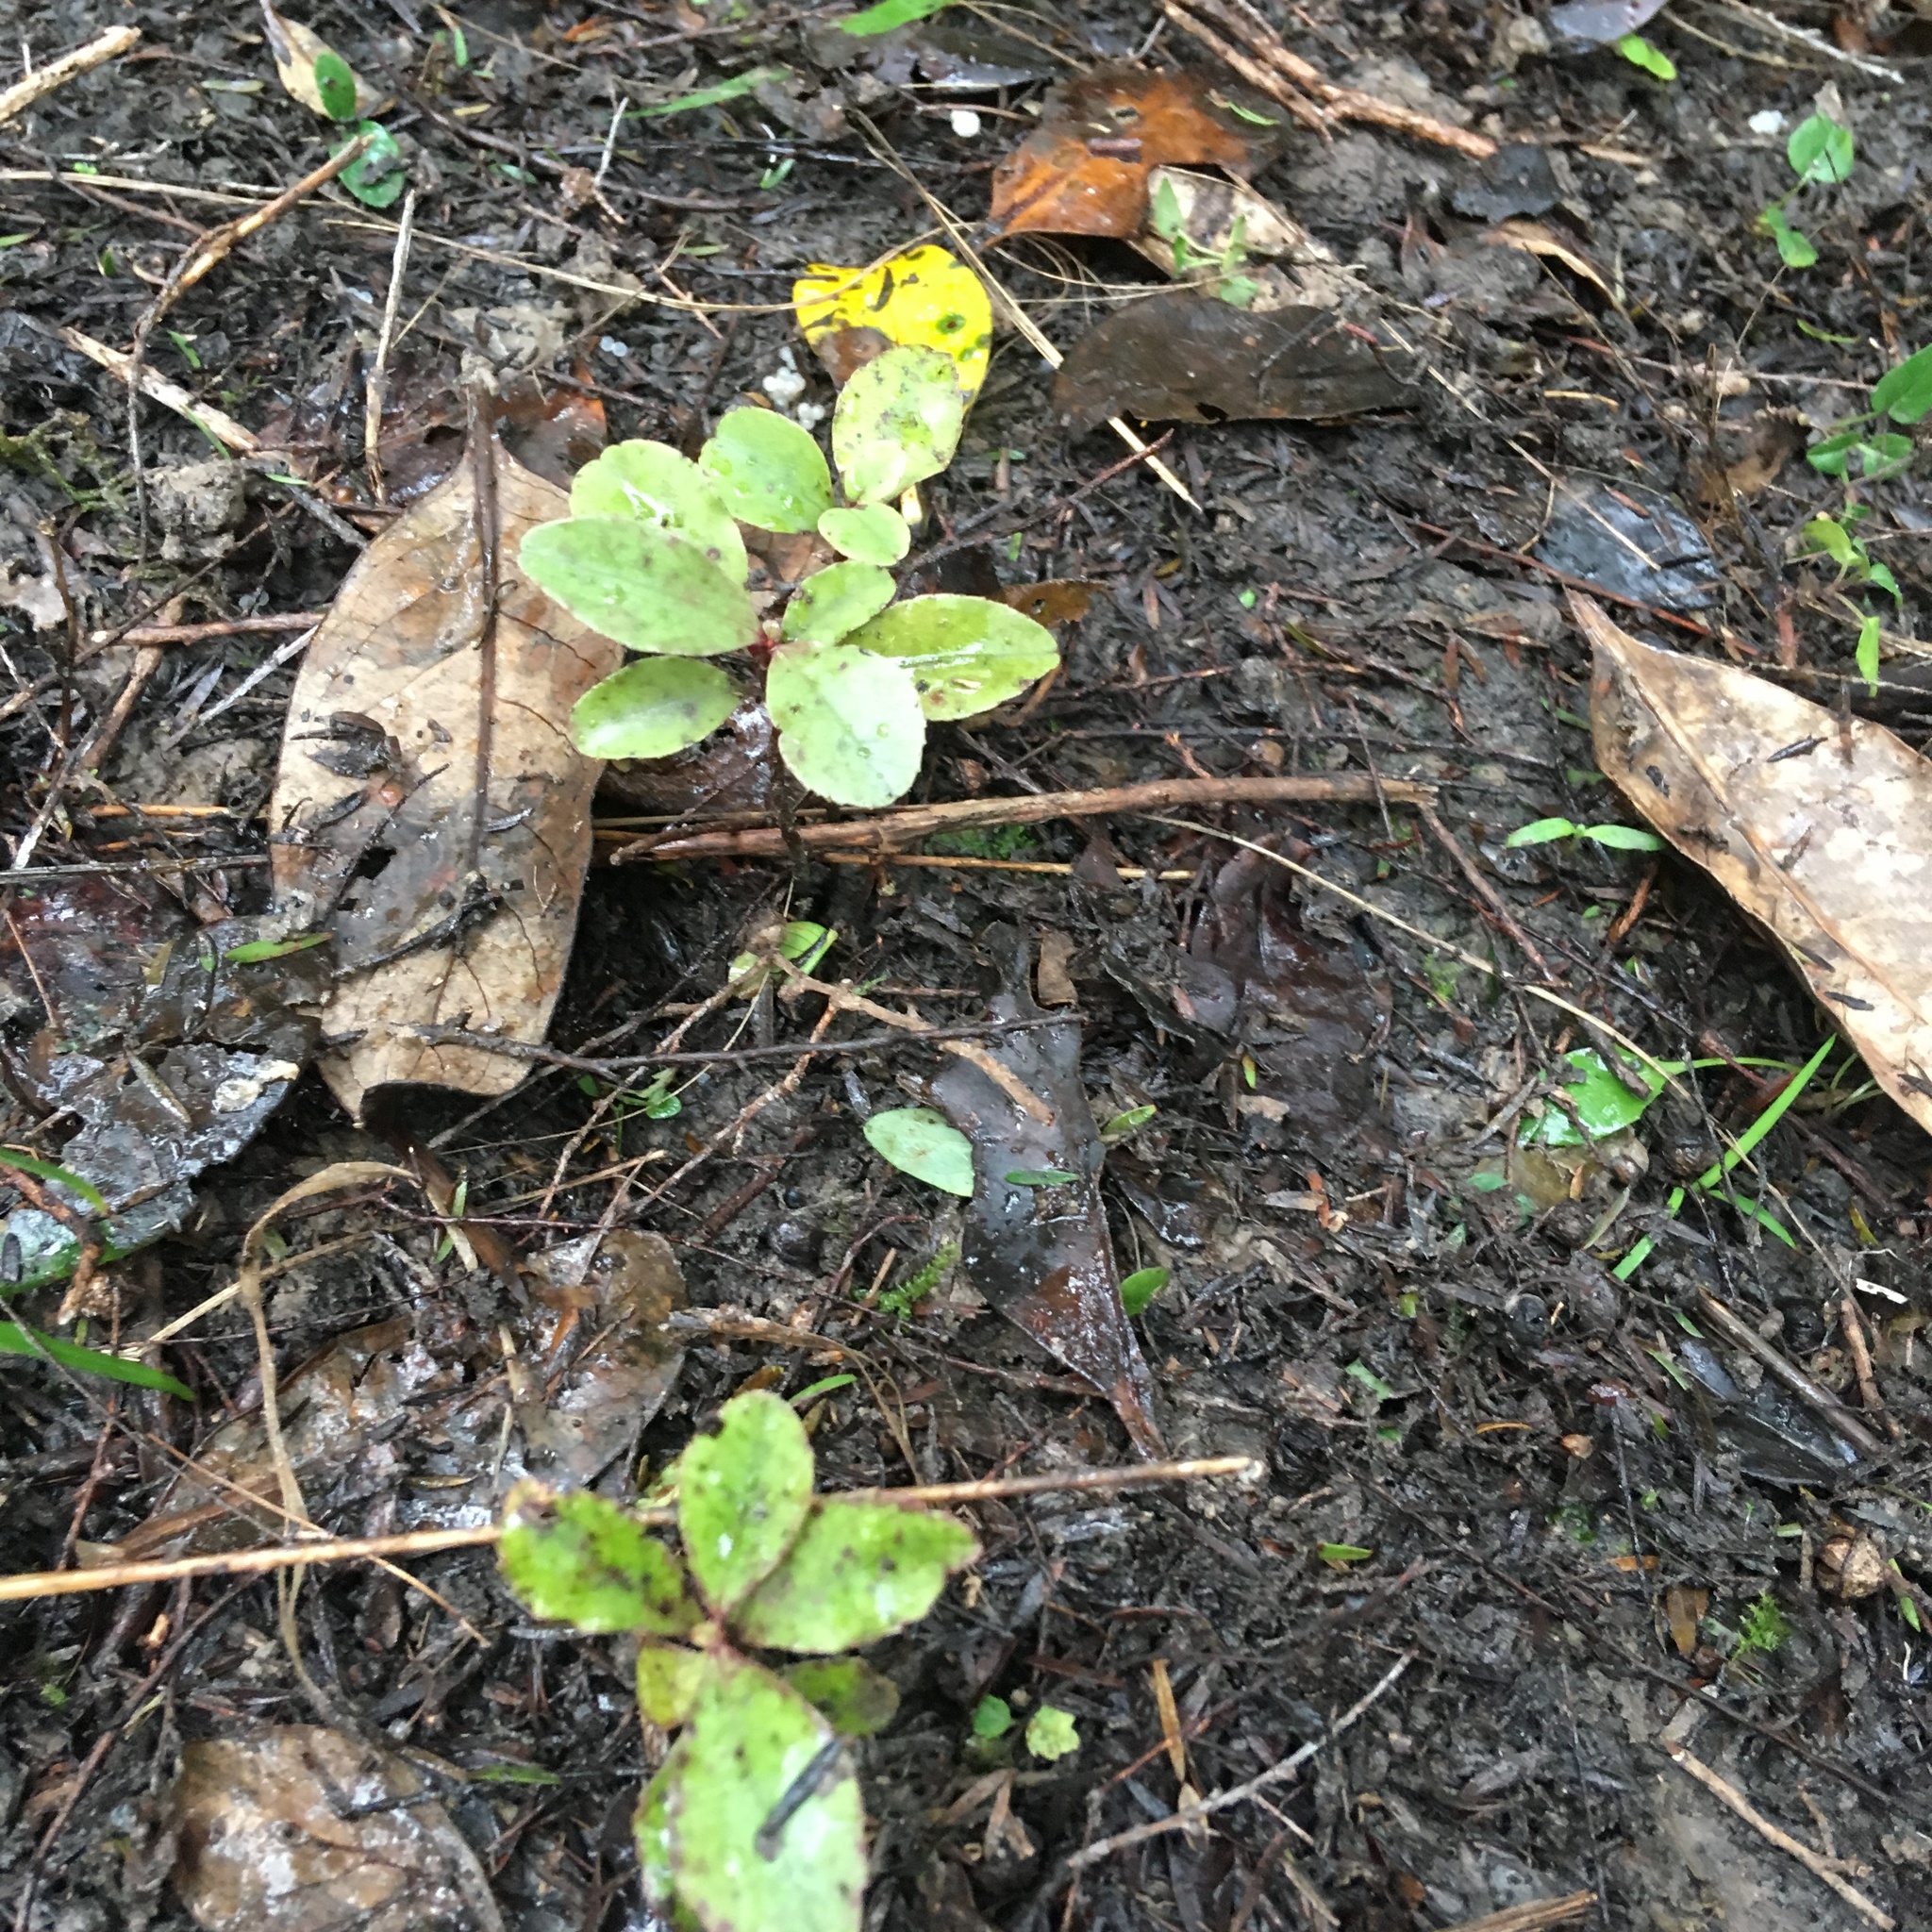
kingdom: Plantae
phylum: Tracheophyta
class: Magnoliopsida
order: Ericales
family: Primulaceae
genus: Myrsine
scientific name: Myrsine australis
